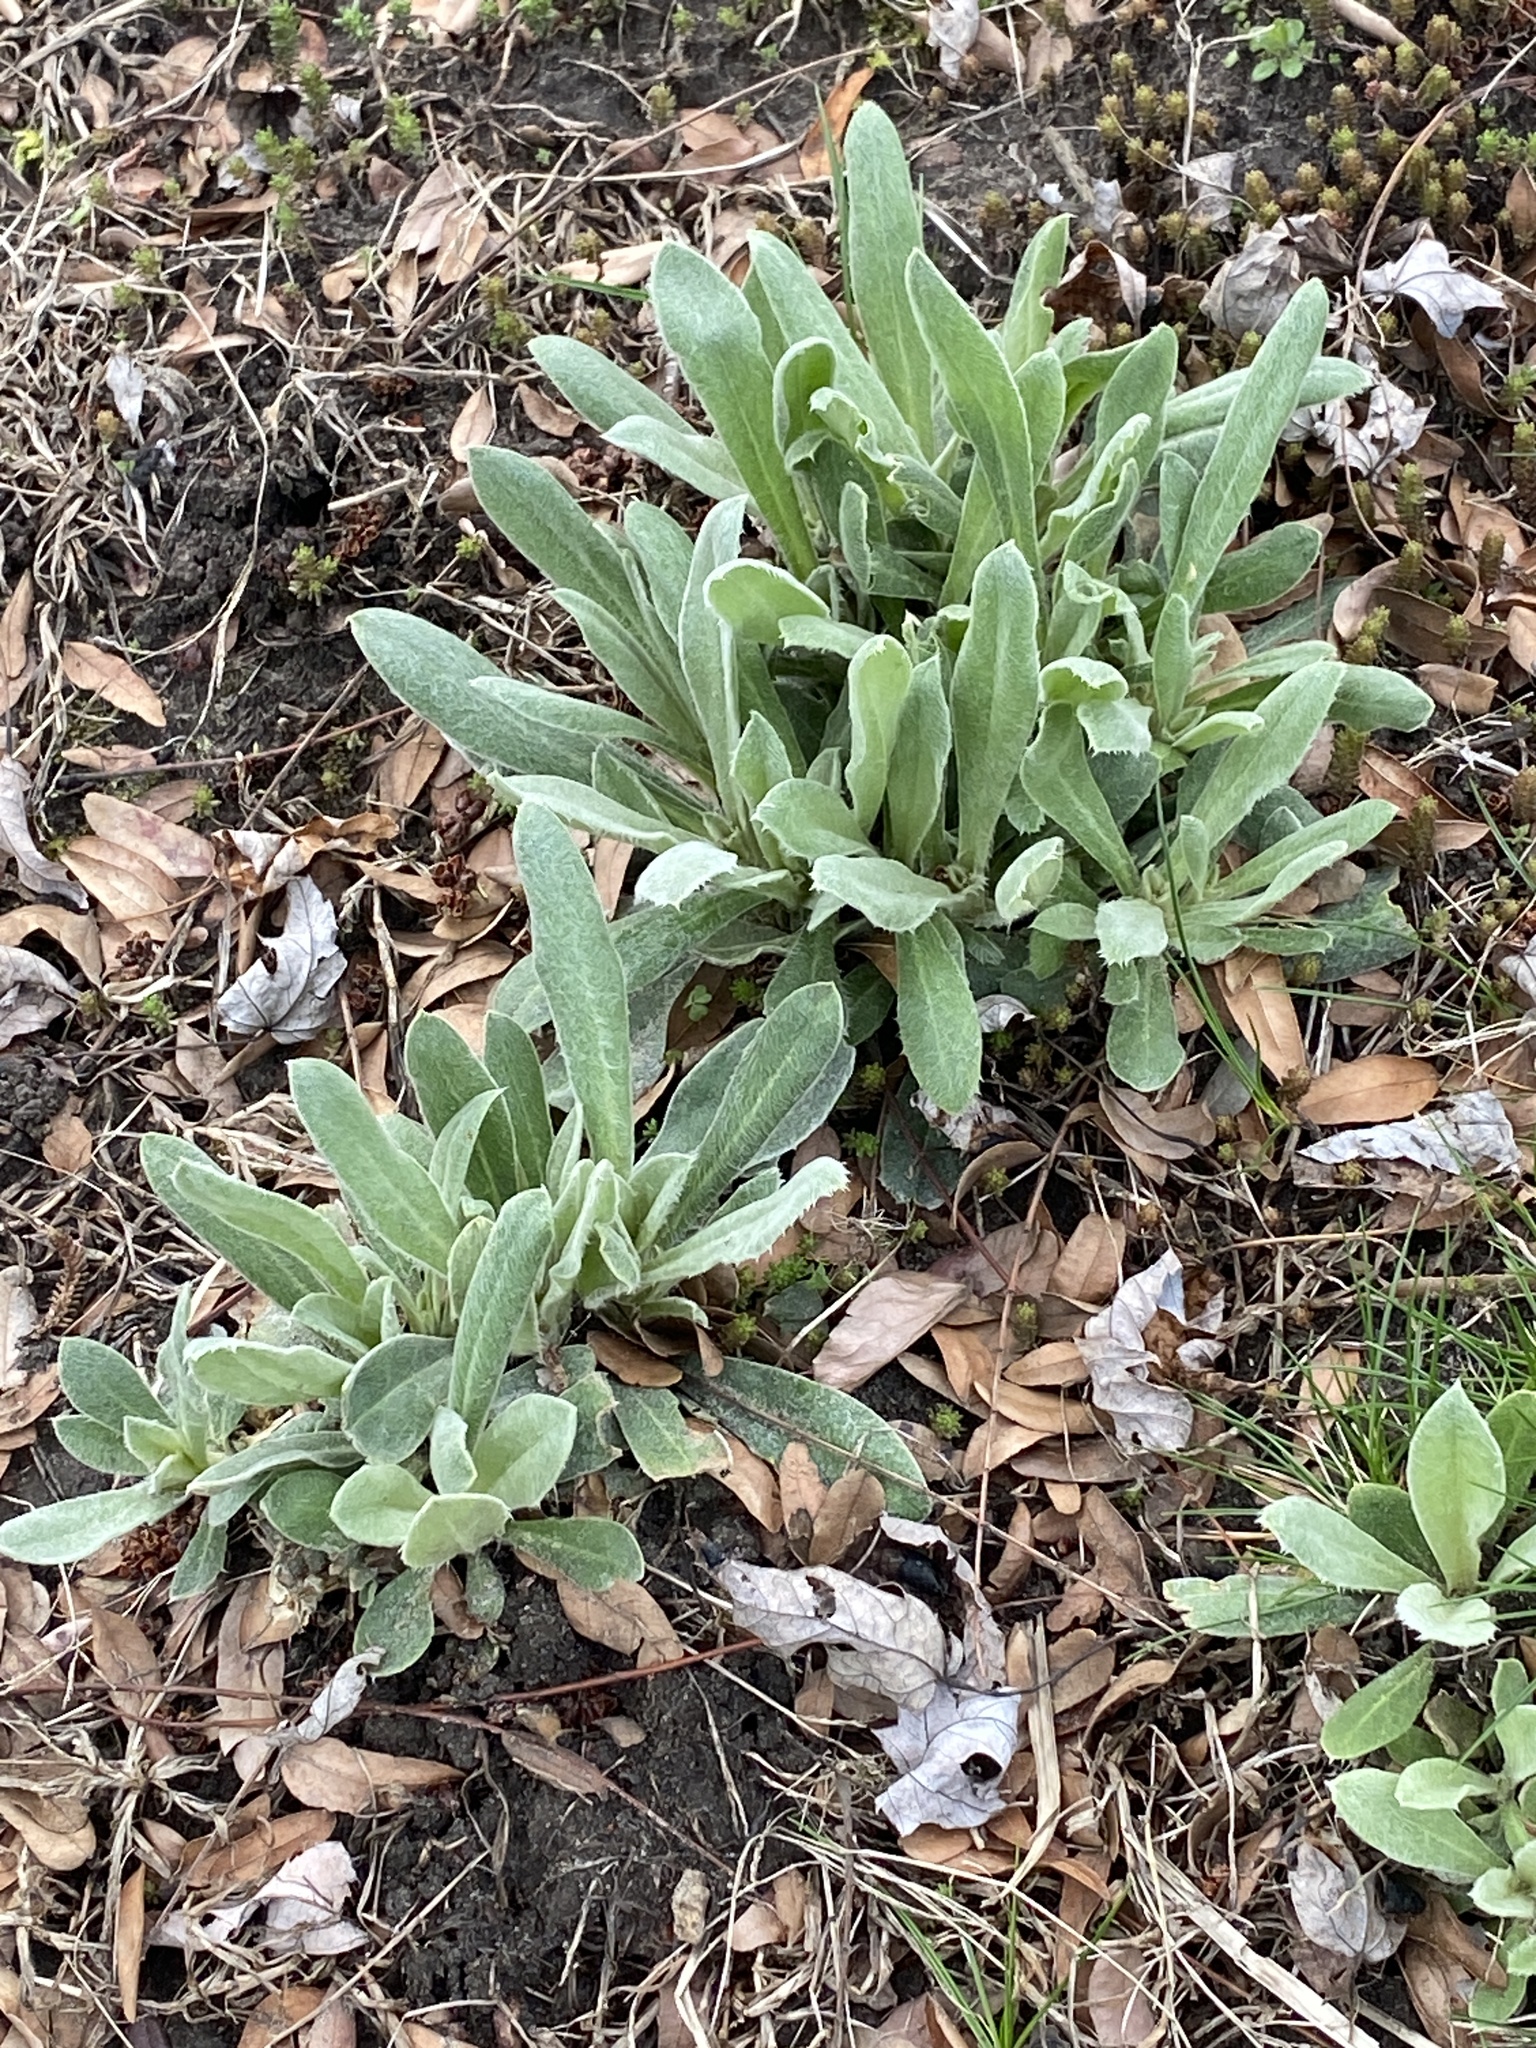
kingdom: Plantae
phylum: Tracheophyta
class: Magnoliopsida
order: Caryophyllales
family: Caryophyllaceae
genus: Silene
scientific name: Silene coronaria
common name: Rose campion
